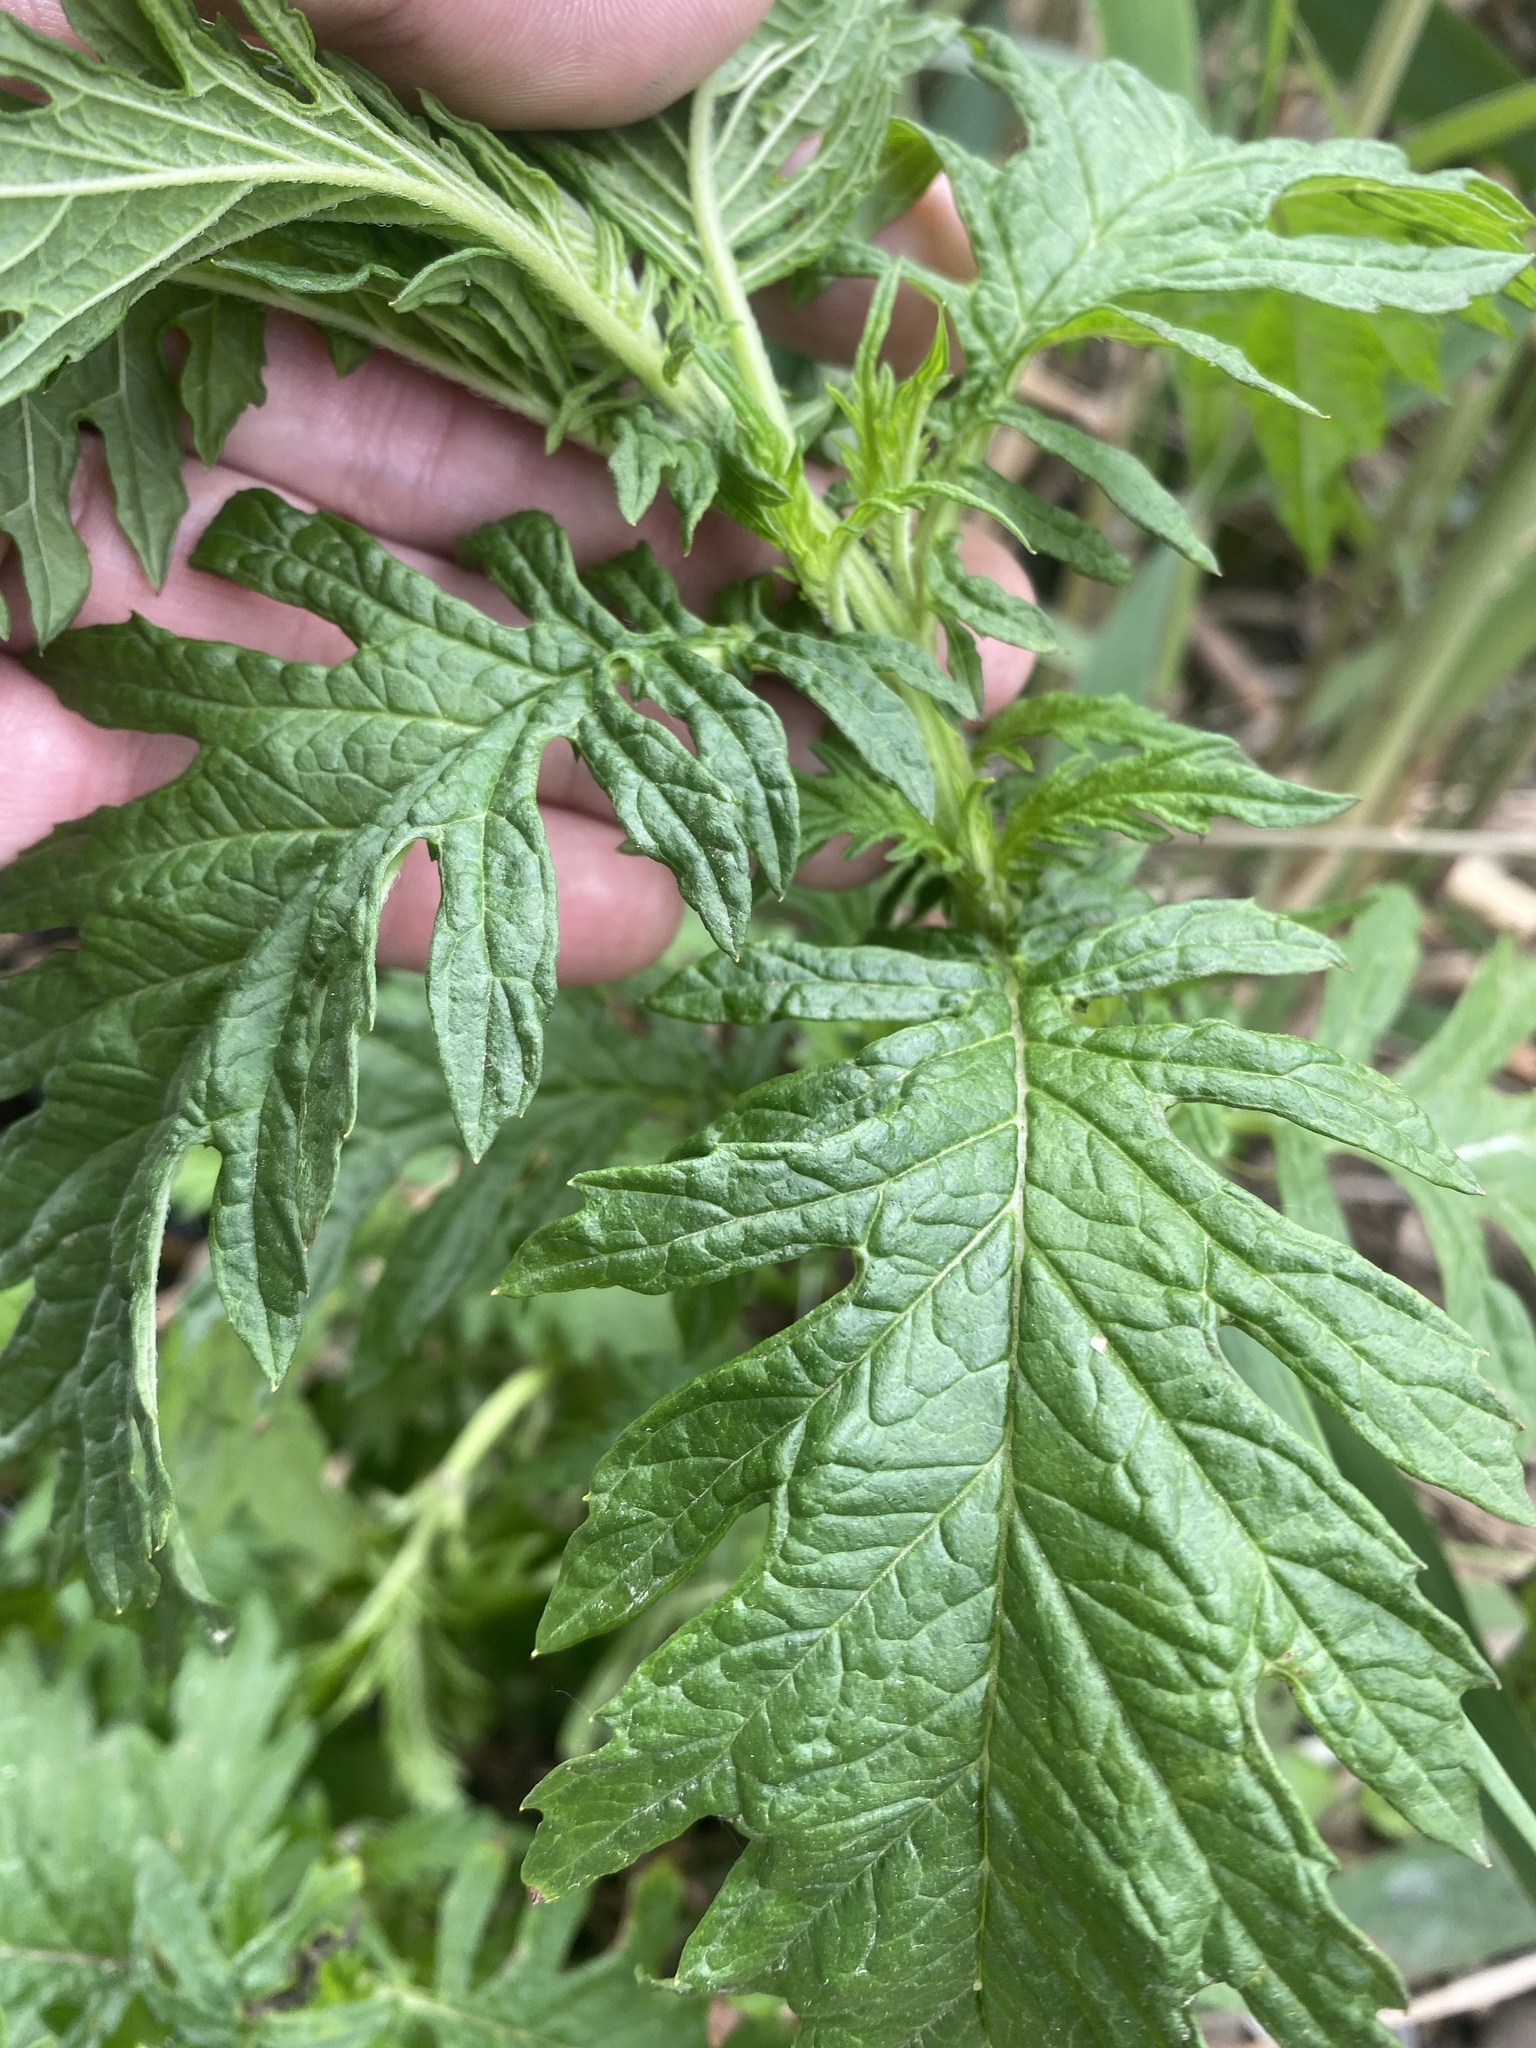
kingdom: Plantae
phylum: Tracheophyta
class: Magnoliopsida
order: Lamiales
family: Lamiaceae
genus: Lycopus
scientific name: Lycopus exaltatus
